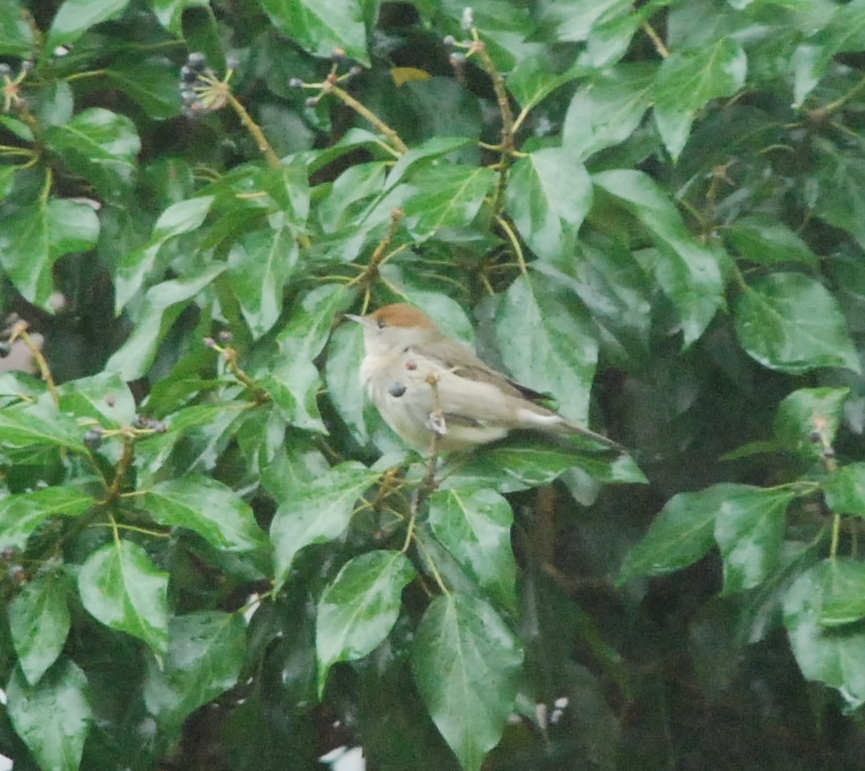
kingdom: Animalia
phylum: Chordata
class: Aves
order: Passeriformes
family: Sylviidae
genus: Sylvia
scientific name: Sylvia atricapilla
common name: Eurasian blackcap
